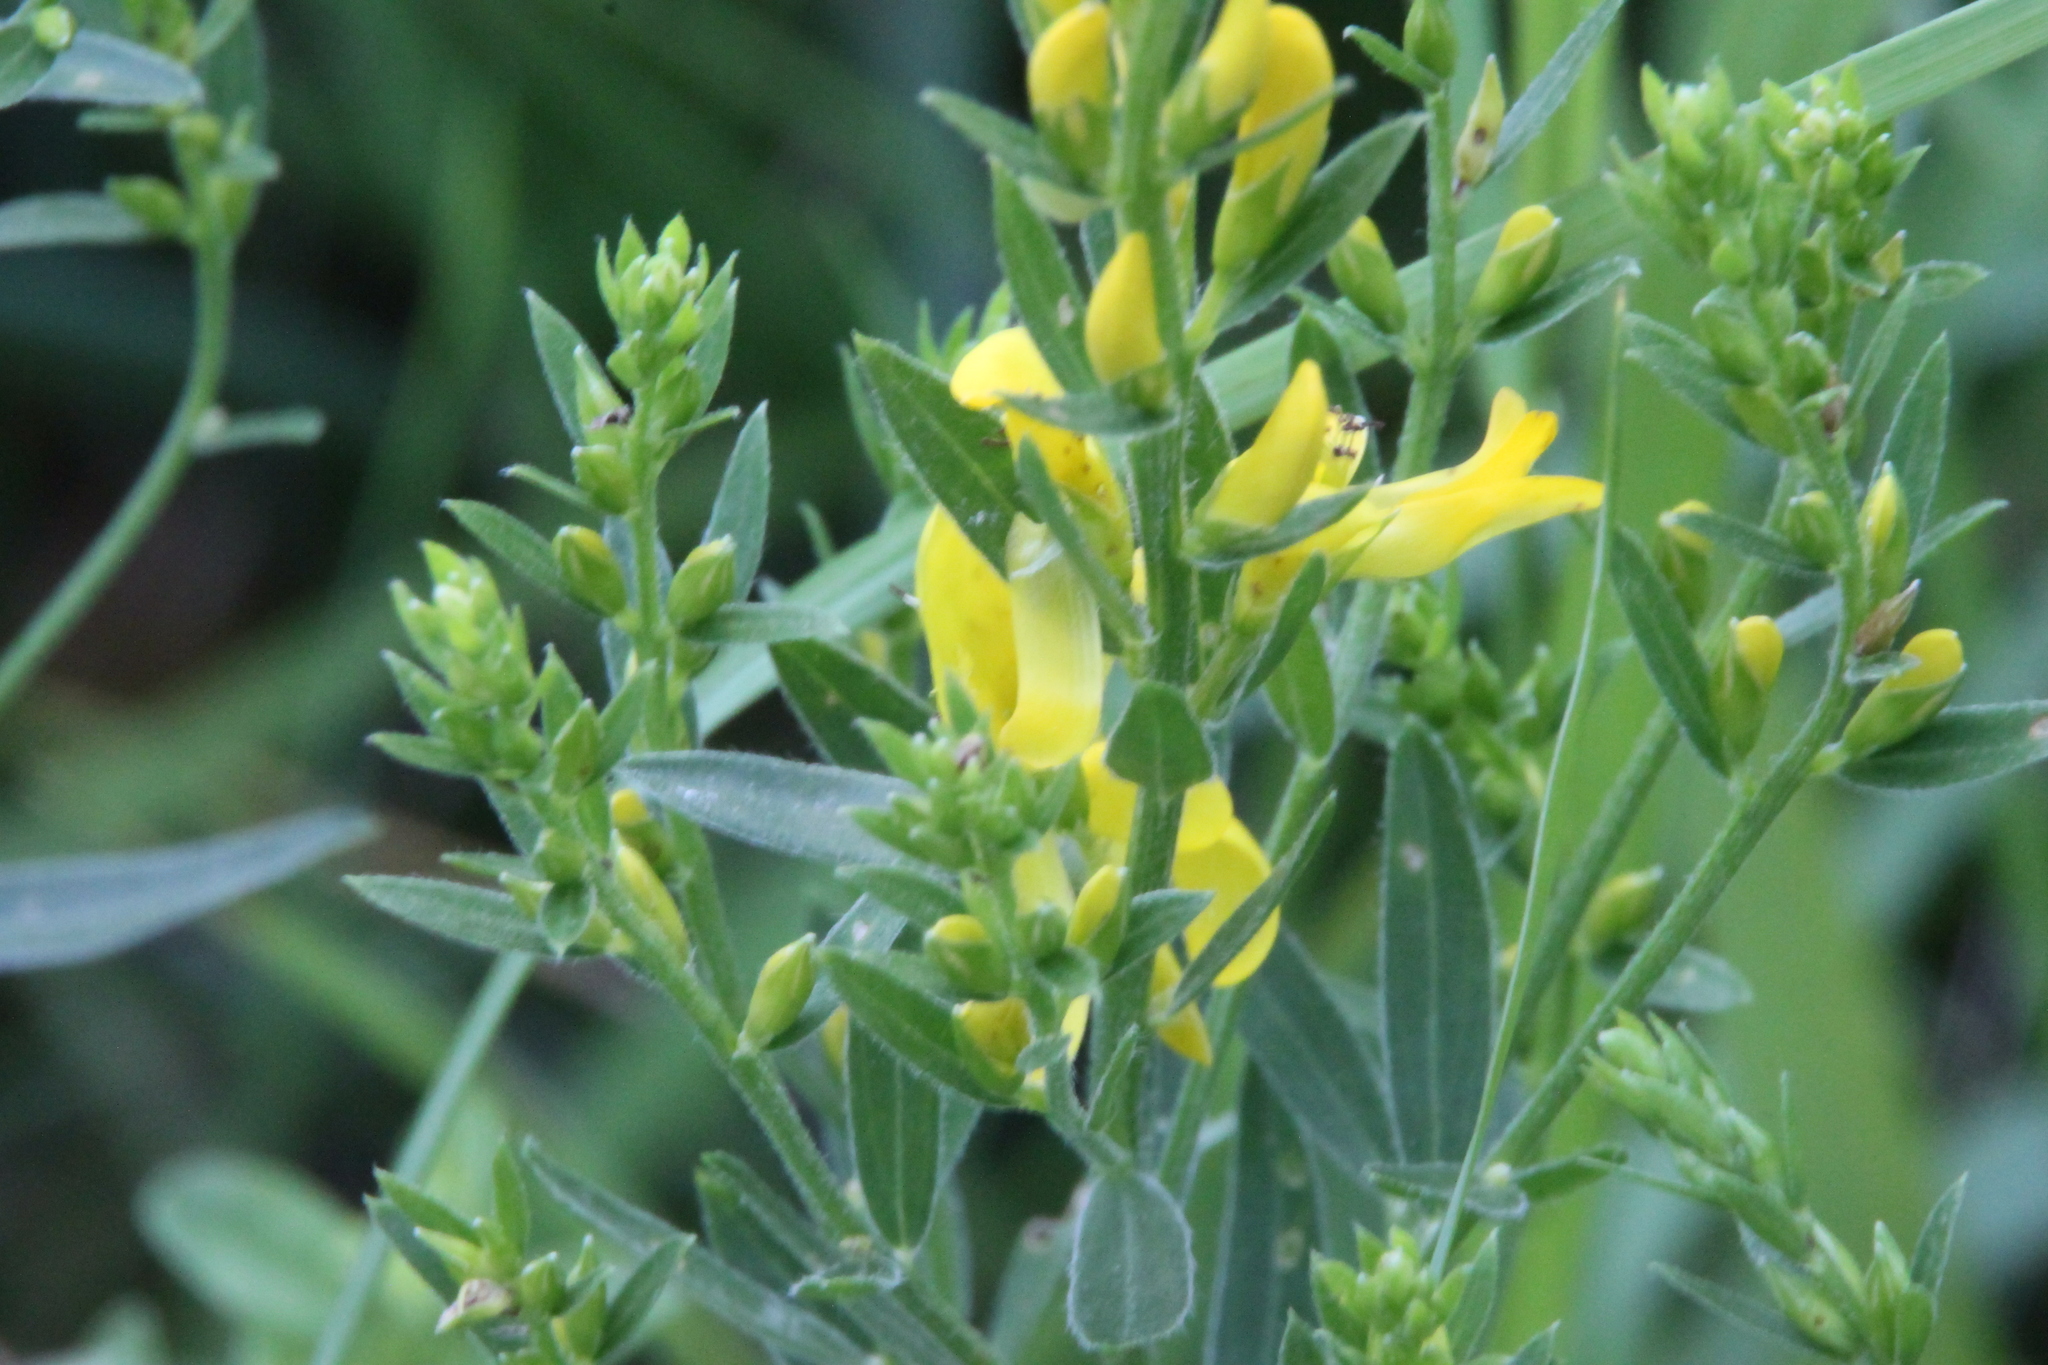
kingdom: Plantae
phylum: Tracheophyta
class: Magnoliopsida
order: Fabales
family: Fabaceae
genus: Lathyrus
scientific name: Lathyrus pratensis
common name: Meadow vetchling
